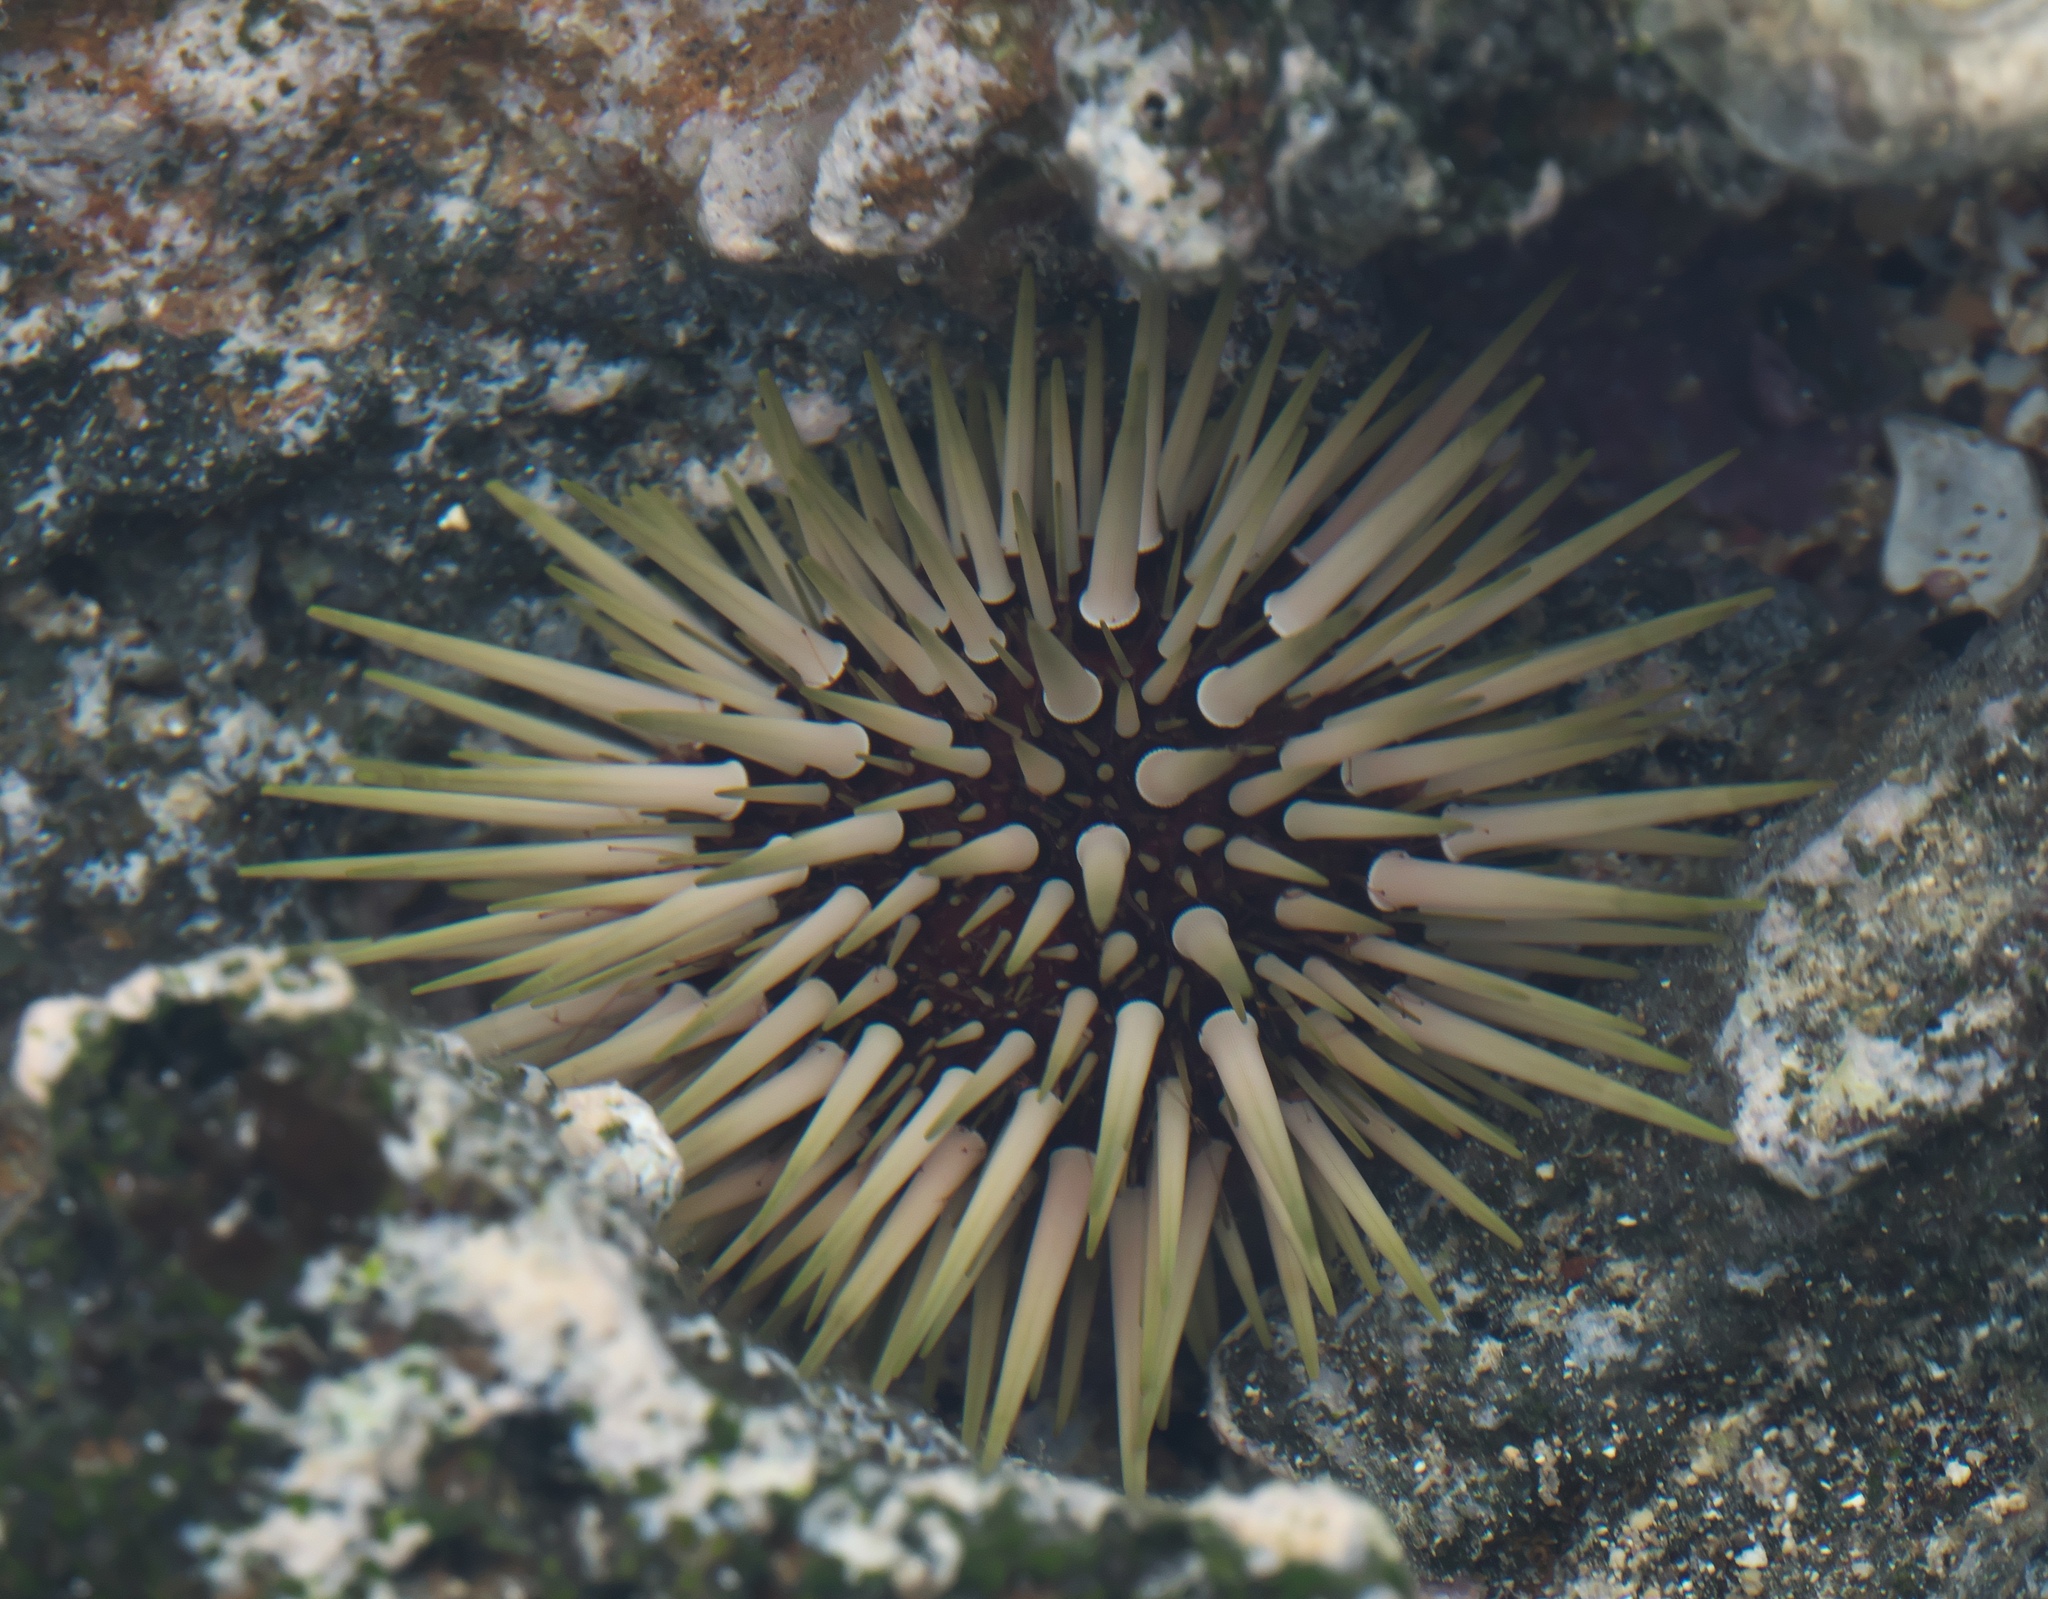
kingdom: Animalia
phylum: Echinodermata
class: Echinoidea
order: Camarodonta
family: Echinometridae
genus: Echinometra
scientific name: Echinometra mathaei
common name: Rock-boring urchin
